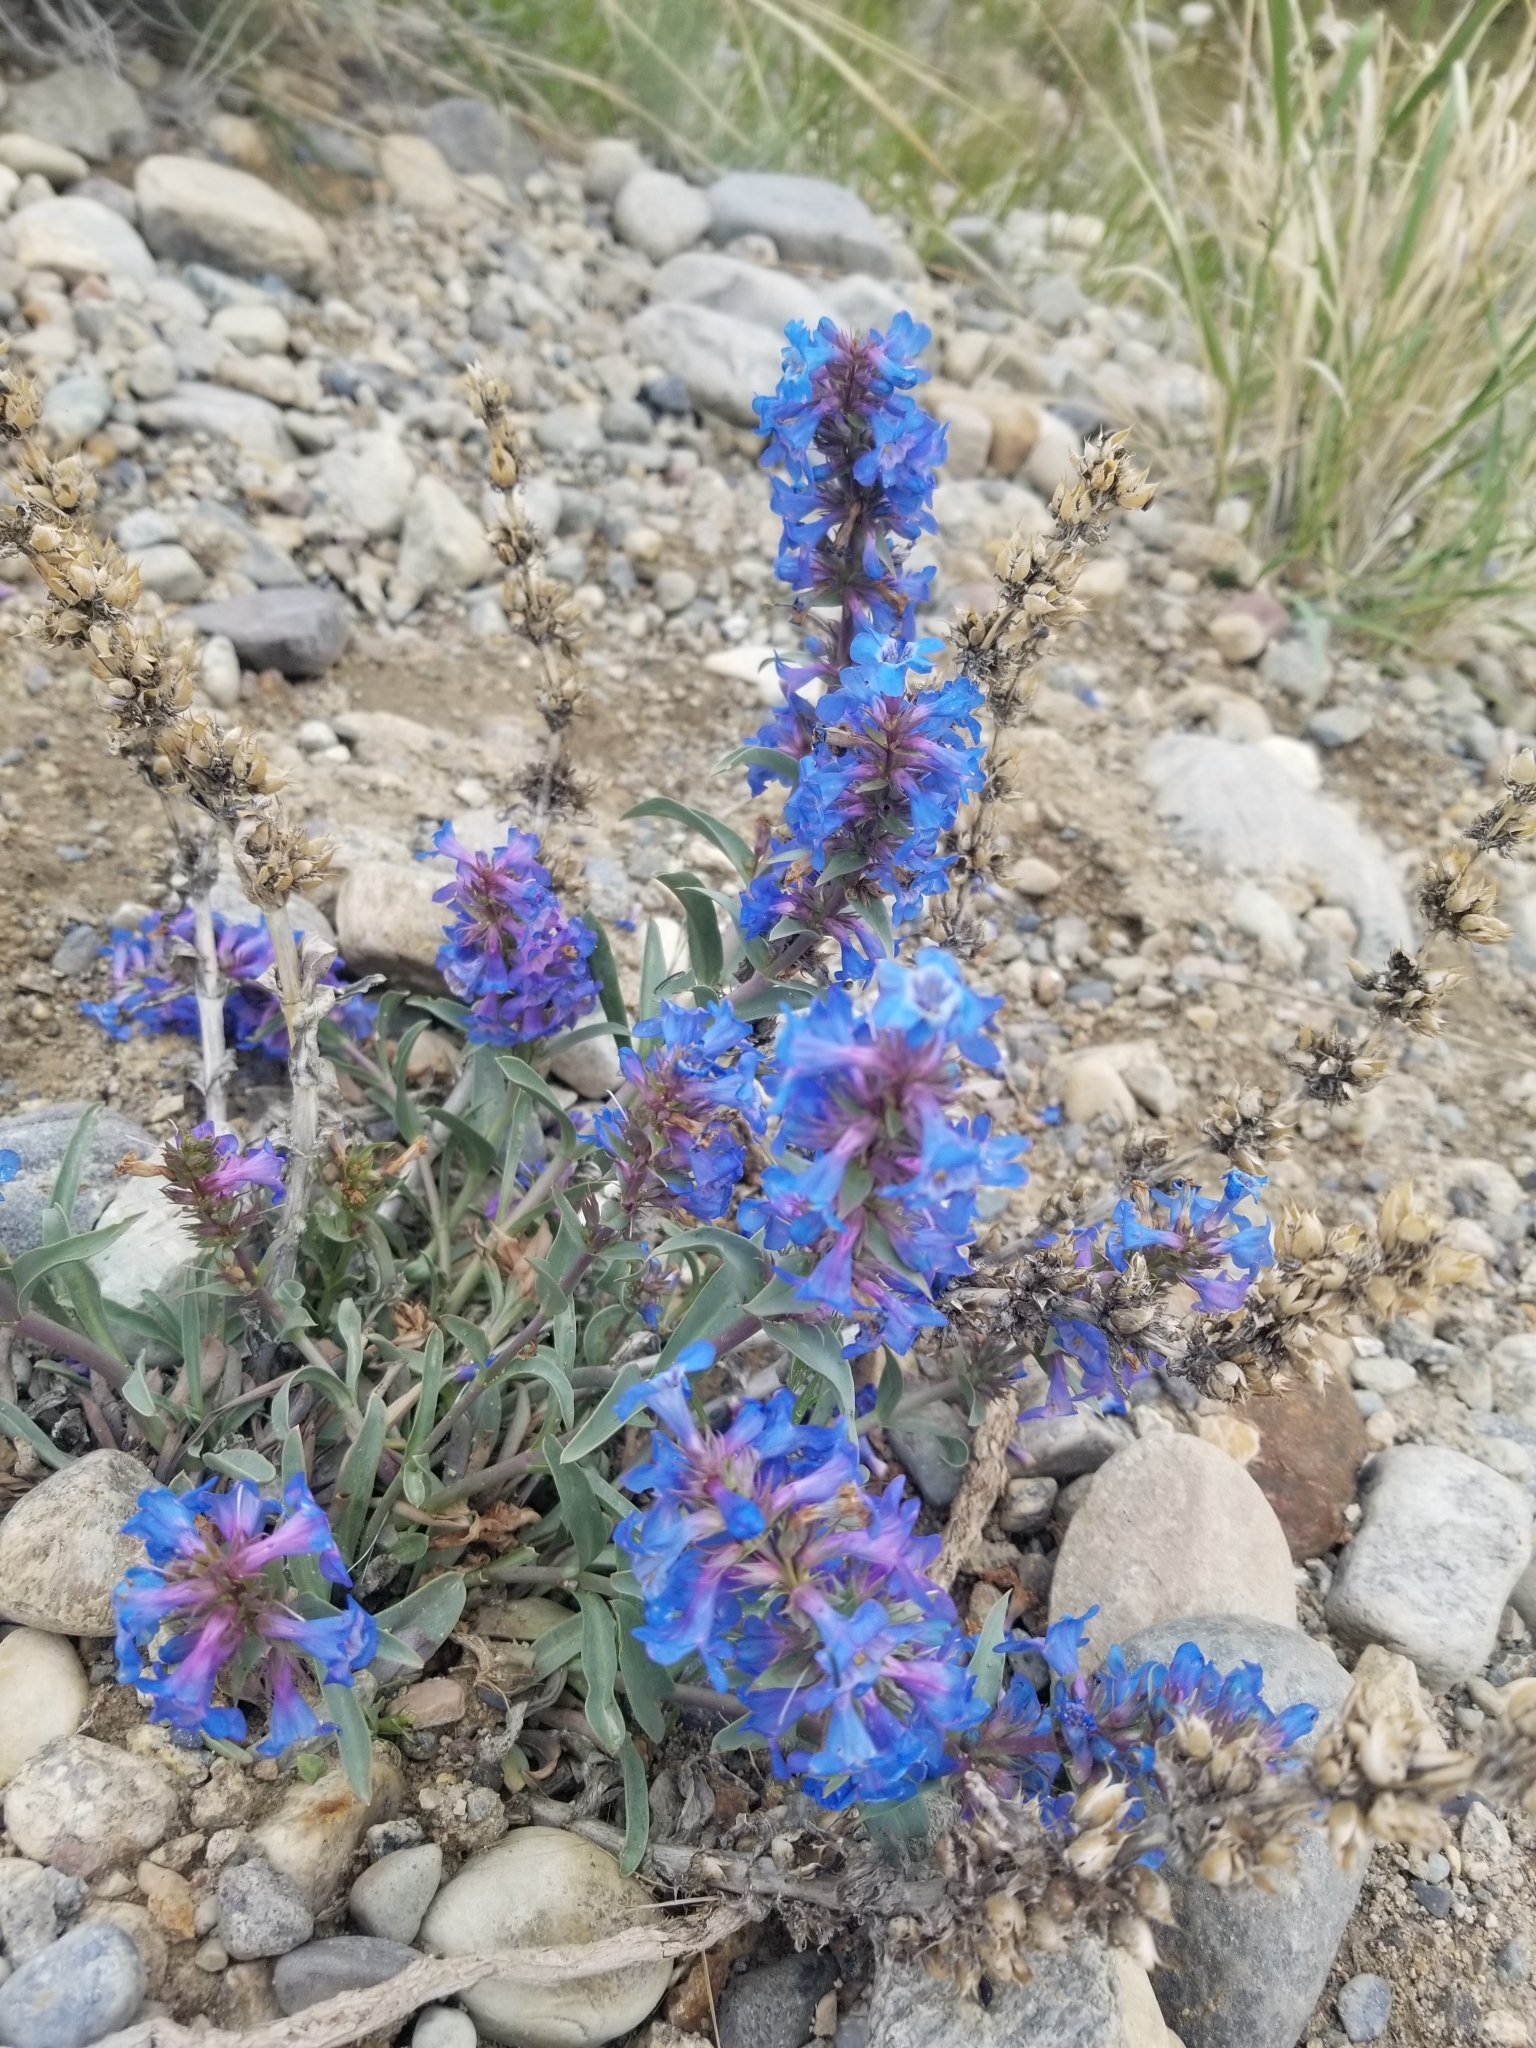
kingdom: Plantae
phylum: Tracheophyta
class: Magnoliopsida
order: Lamiales
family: Plantaginaceae
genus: Penstemon
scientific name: Penstemon nitidus
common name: Shining penstemon
